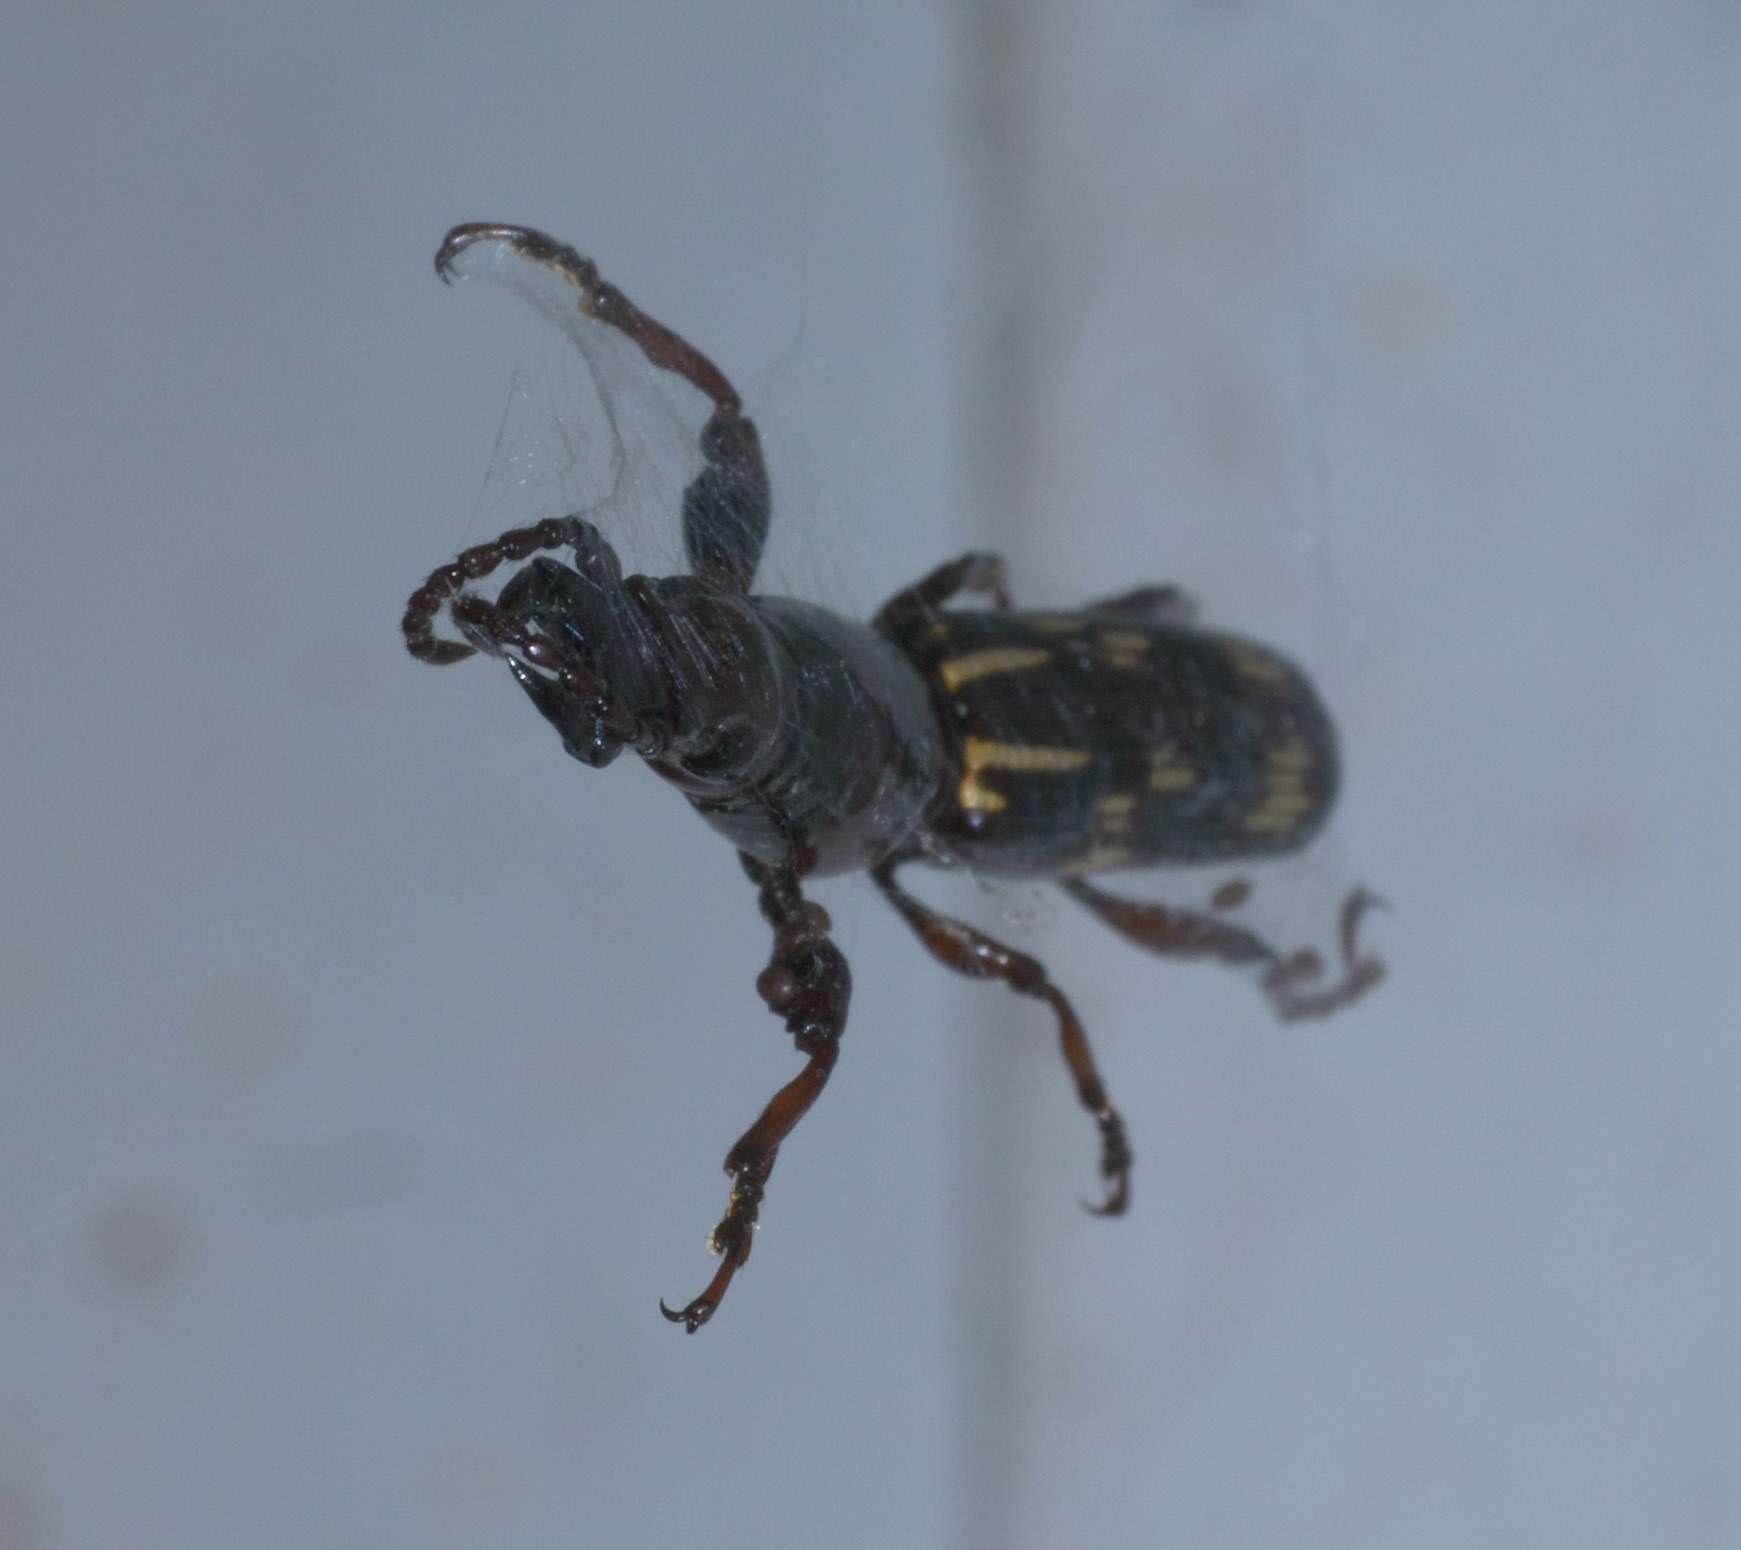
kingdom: Animalia
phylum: Arthropoda
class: Insecta
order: Coleoptera
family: Brentidae
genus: Arrenodes
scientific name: Arrenodes minutus
